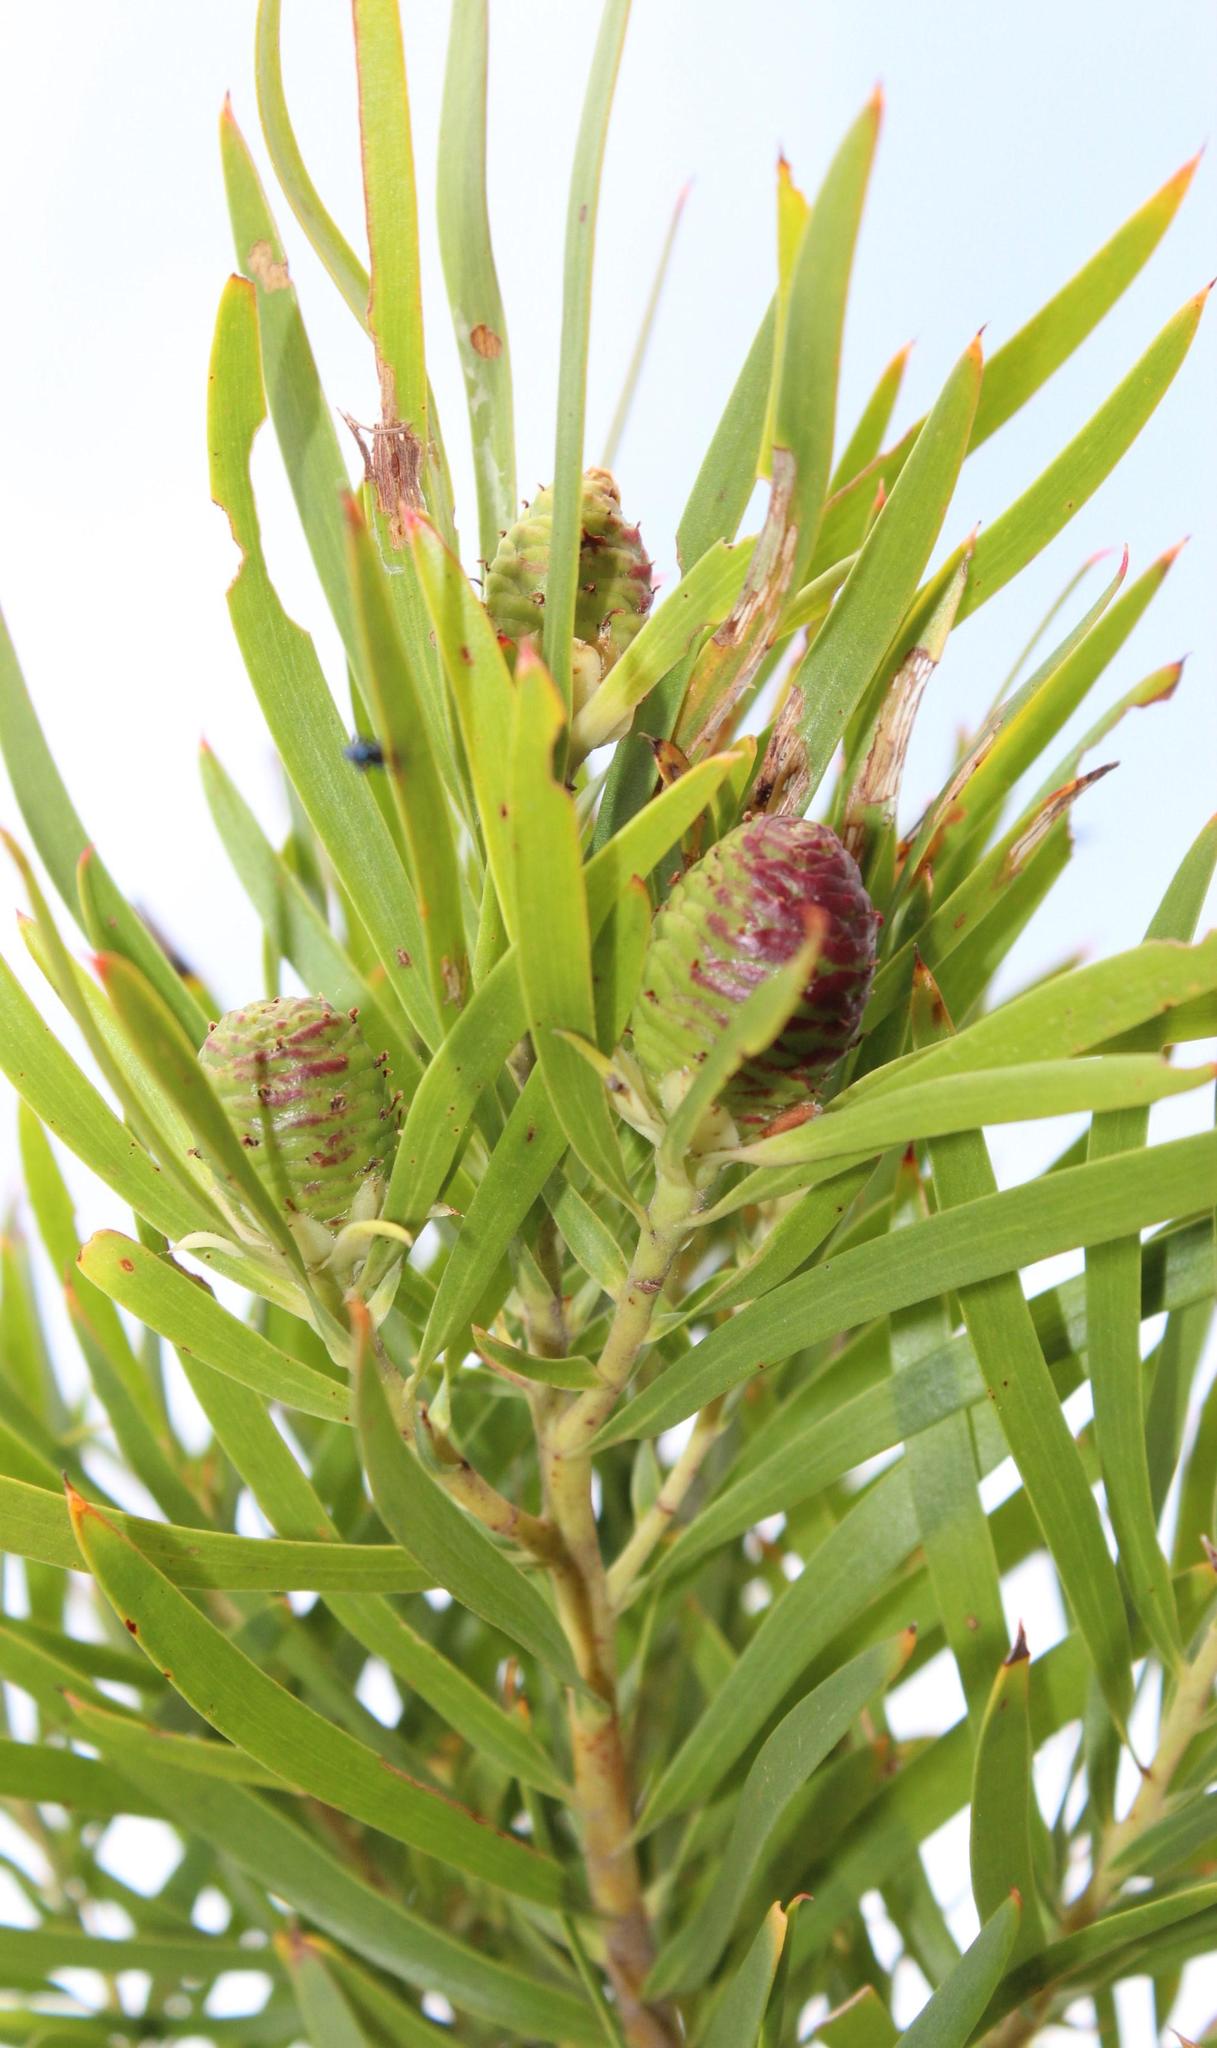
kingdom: Plantae
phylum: Tracheophyta
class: Magnoliopsida
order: Proteales
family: Proteaceae
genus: Leucadendron
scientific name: Leucadendron salicifolium
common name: Common stream conebush
